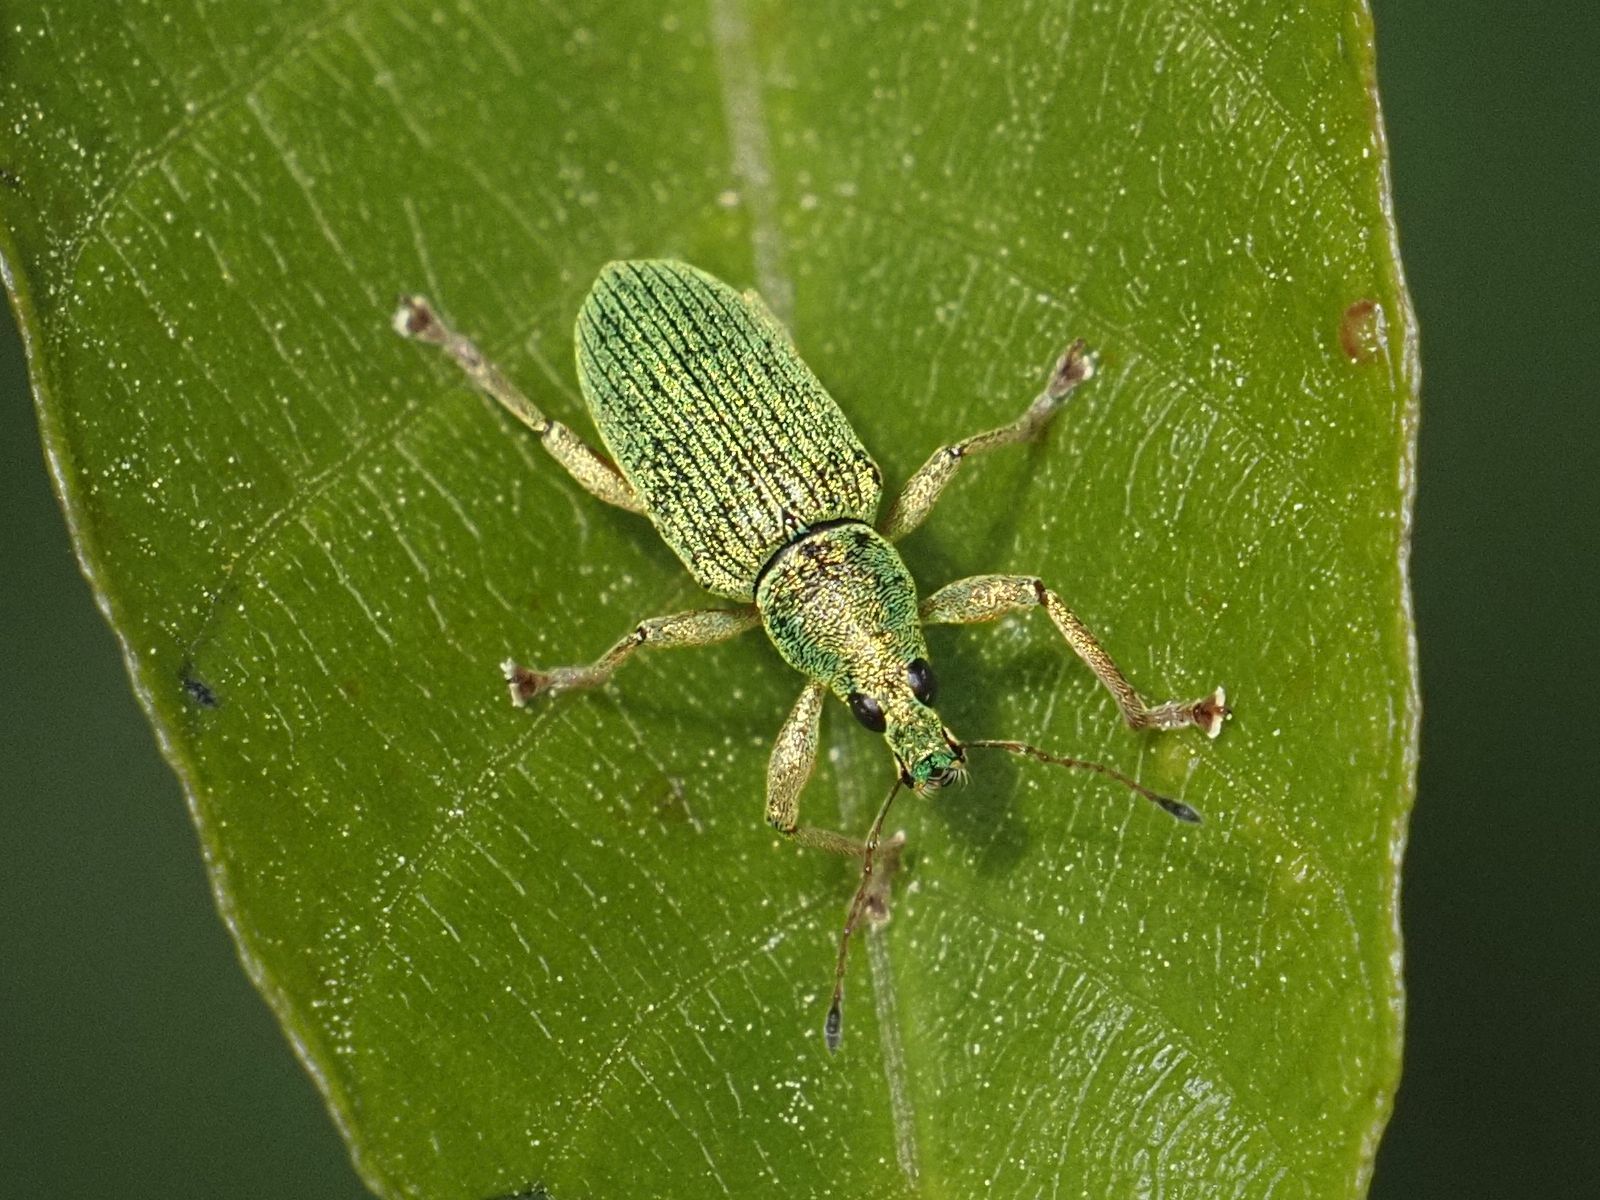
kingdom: Animalia
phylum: Arthropoda
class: Insecta
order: Coleoptera
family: Curculionidae
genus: Polydrusus
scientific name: Polydrusus formosus
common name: Weevil
